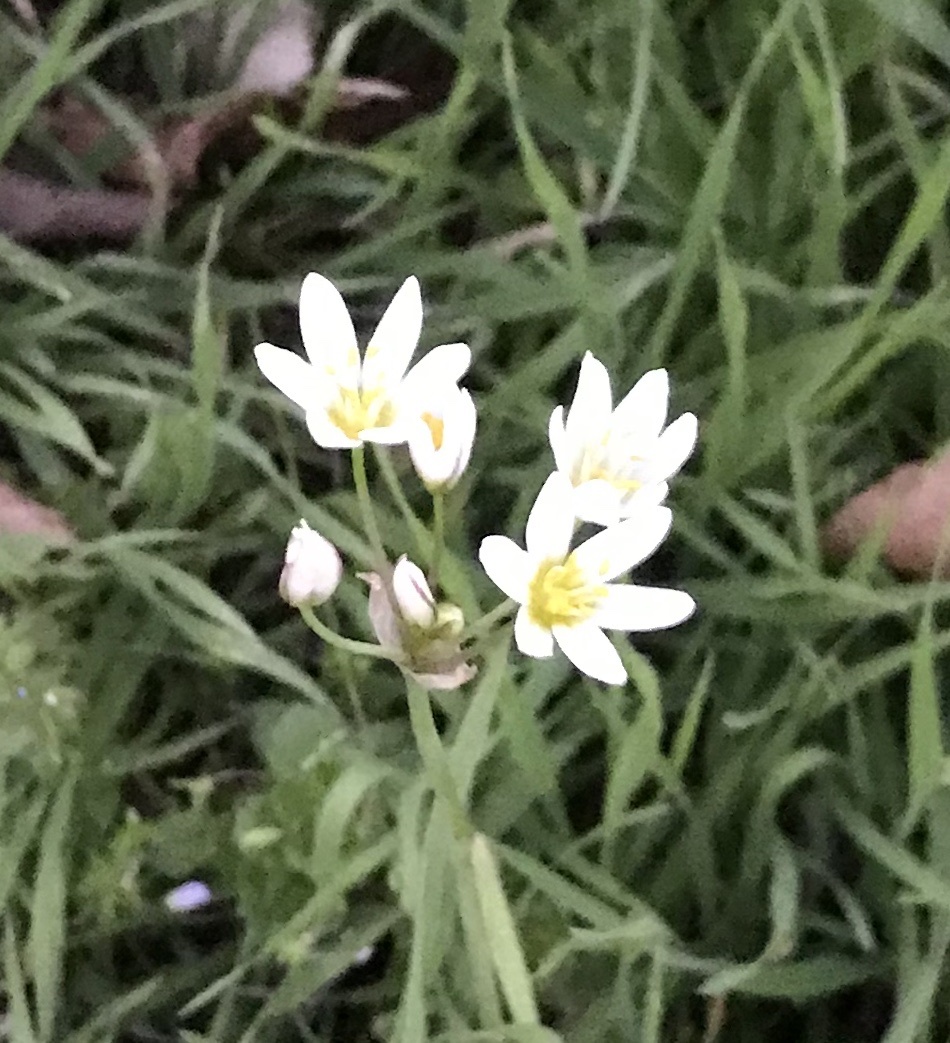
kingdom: Plantae
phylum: Tracheophyta
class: Liliopsida
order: Asparagales
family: Amaryllidaceae
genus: Nothoscordum
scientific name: Nothoscordum bivalve
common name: Crow-poison
